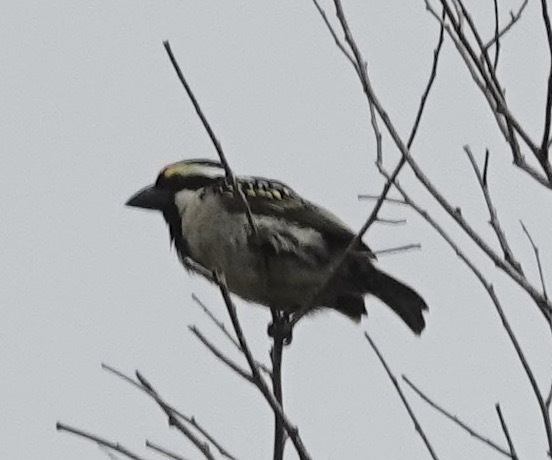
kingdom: Animalia
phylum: Chordata
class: Aves
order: Piciformes
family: Lybiidae
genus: Tricholaema
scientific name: Tricholaema leucomelas
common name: Acacia pied barbet
